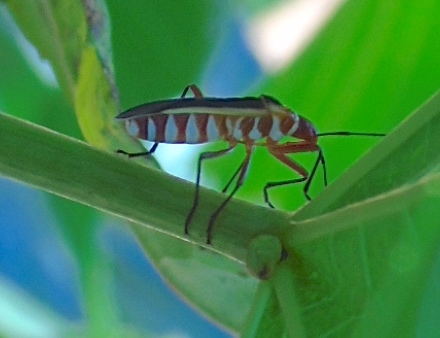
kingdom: Animalia
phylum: Arthropoda
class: Insecta
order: Hemiptera
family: Pyrrhocoridae
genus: Dysdercus
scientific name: Dysdercus obscuratus
